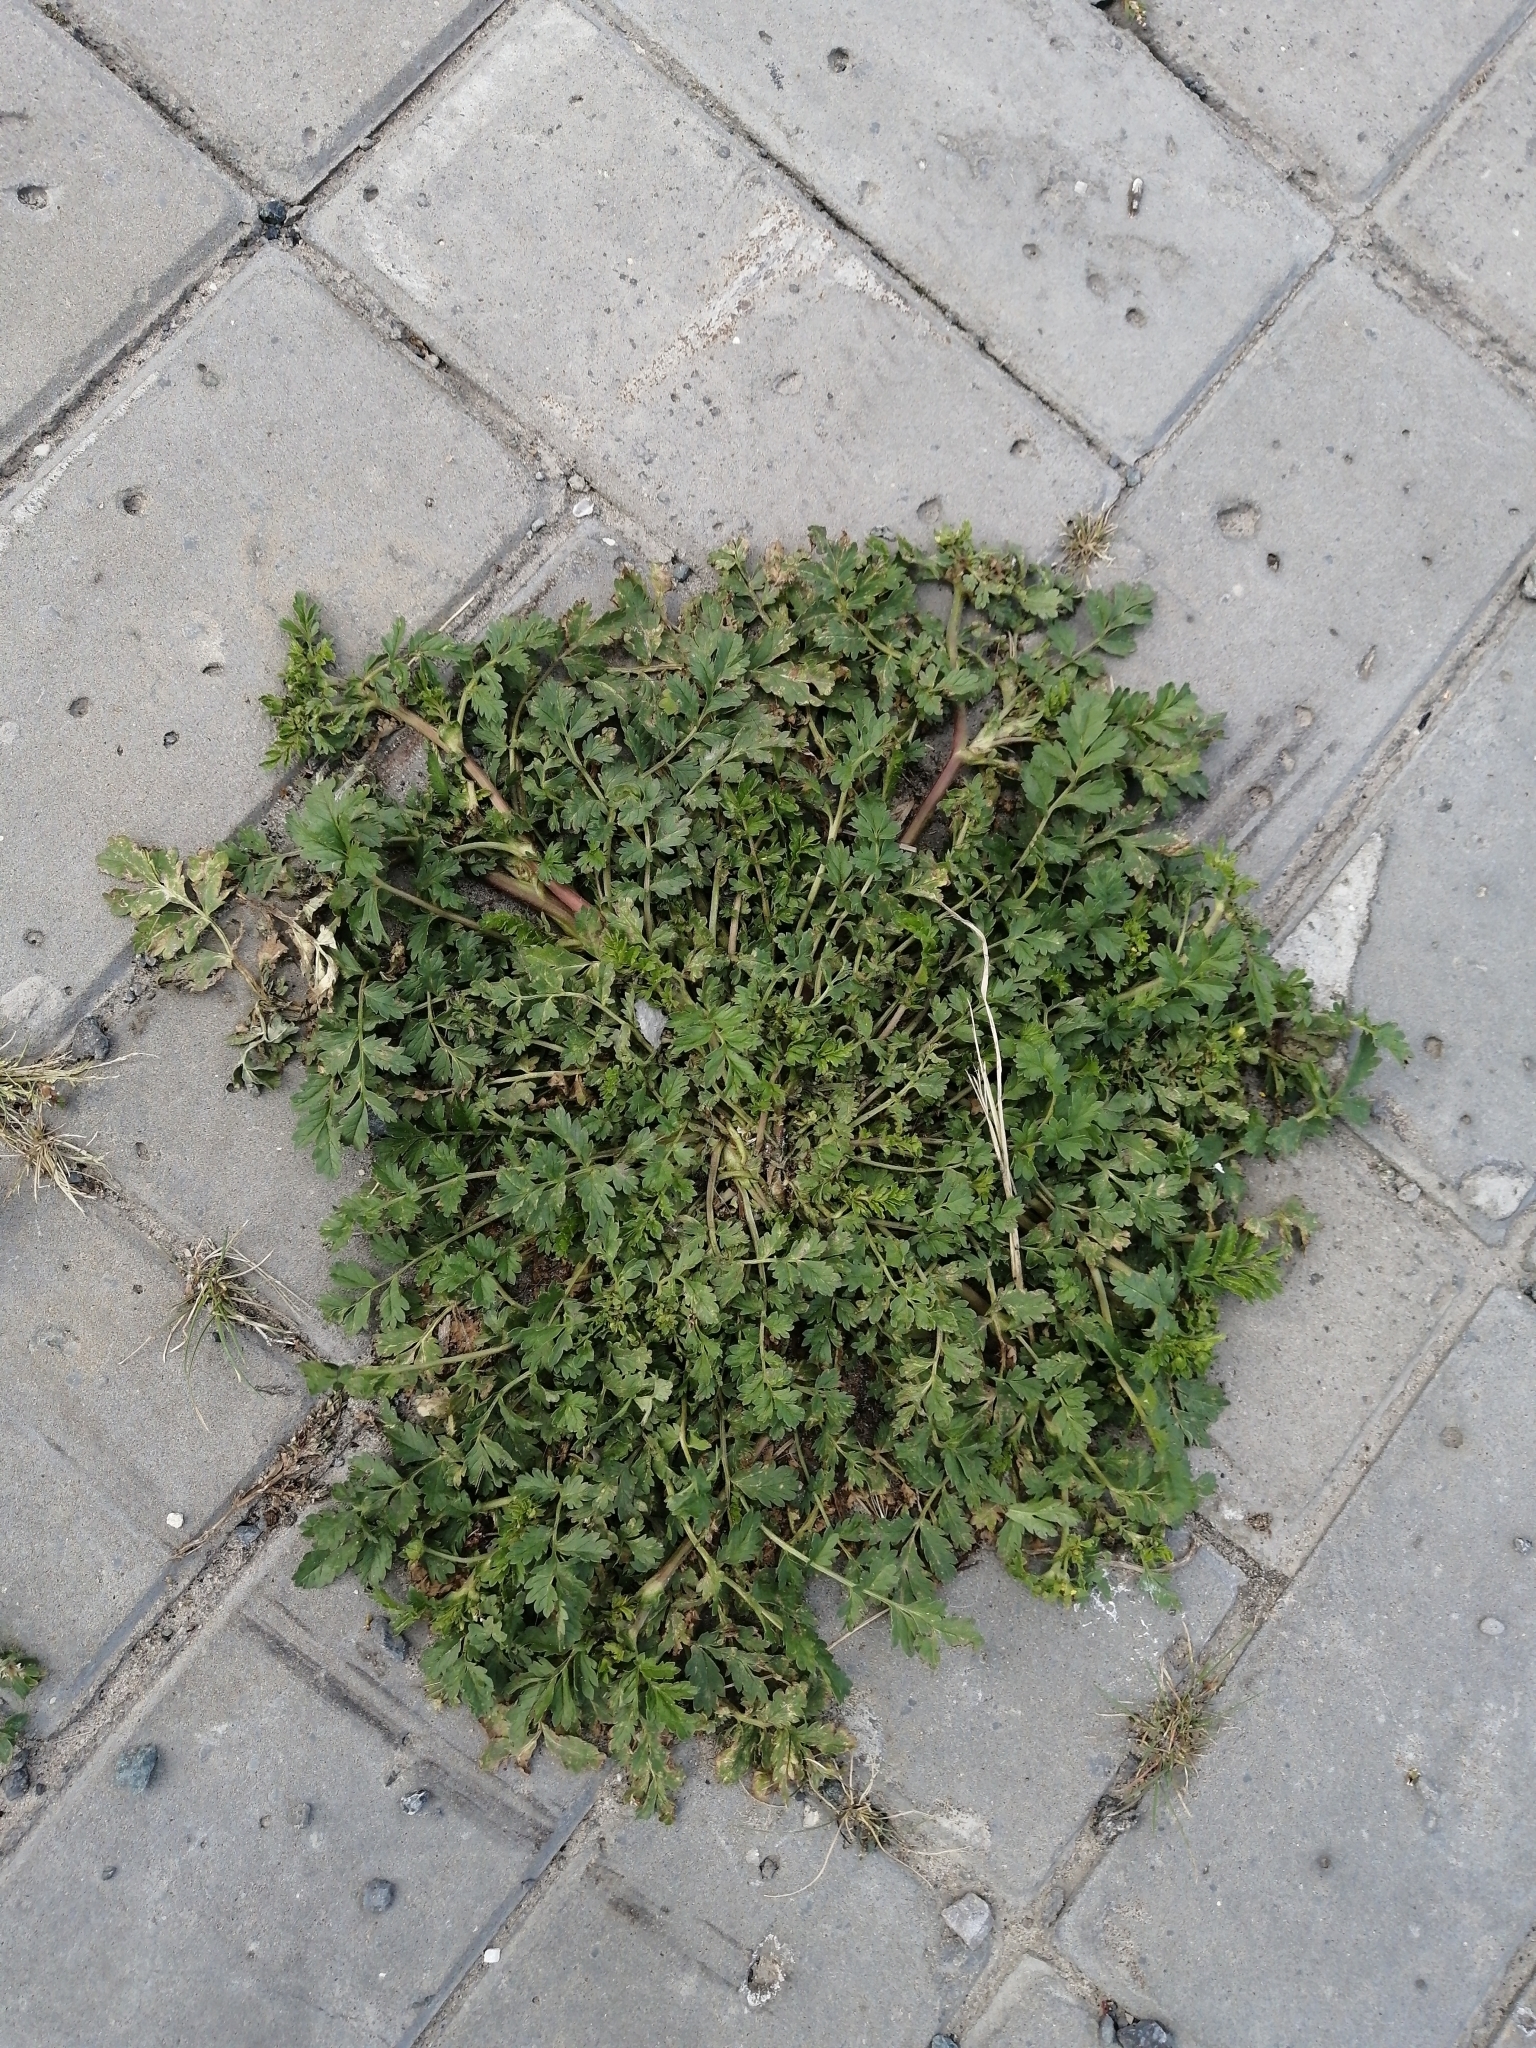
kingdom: Plantae
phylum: Tracheophyta
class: Magnoliopsida
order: Rosales
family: Rosaceae
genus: Potentilla
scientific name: Potentilla supina
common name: Prostrate cinquefoil
